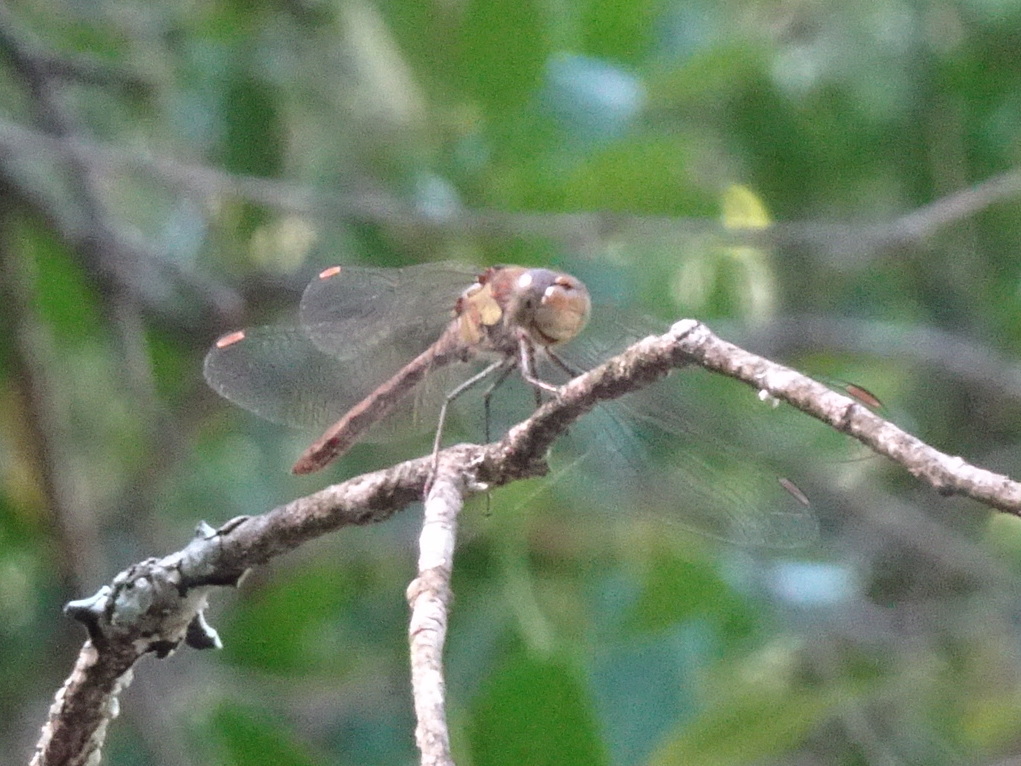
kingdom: Animalia
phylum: Arthropoda
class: Insecta
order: Odonata
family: Libellulidae
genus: Sympetrum
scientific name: Sympetrum striolatum
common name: Common darter
